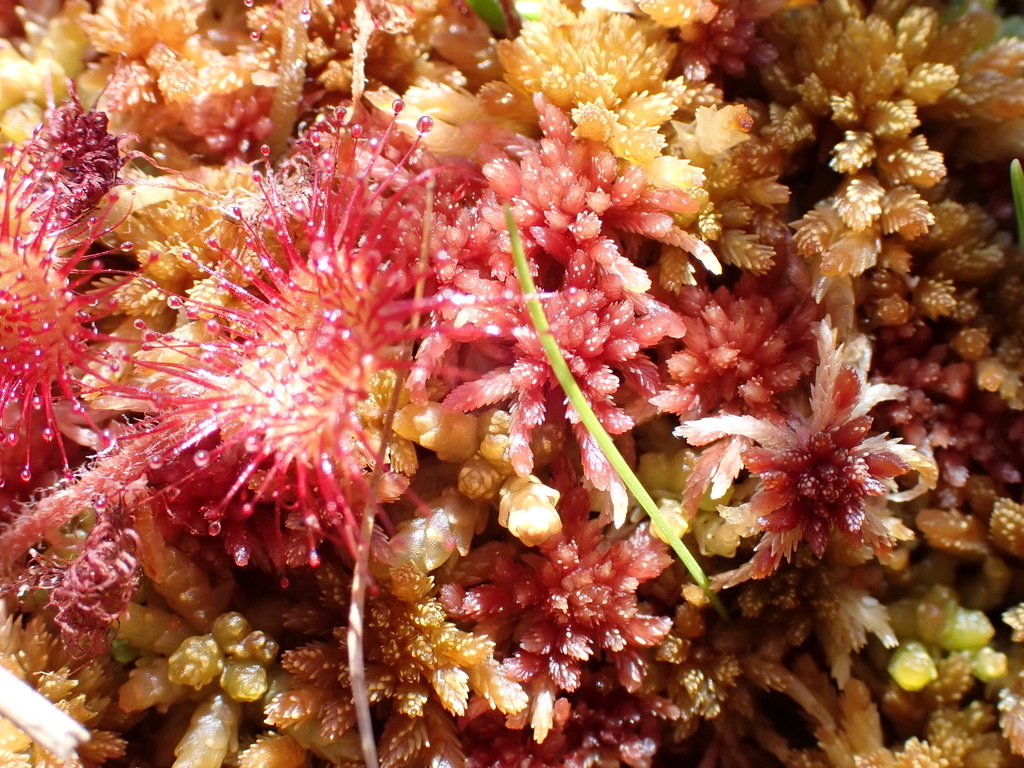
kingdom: Plantae
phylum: Tracheophyta
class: Magnoliopsida
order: Caryophyllales
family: Droseraceae
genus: Drosera
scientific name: Drosera rotundifolia
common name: Round-leaved sundew
